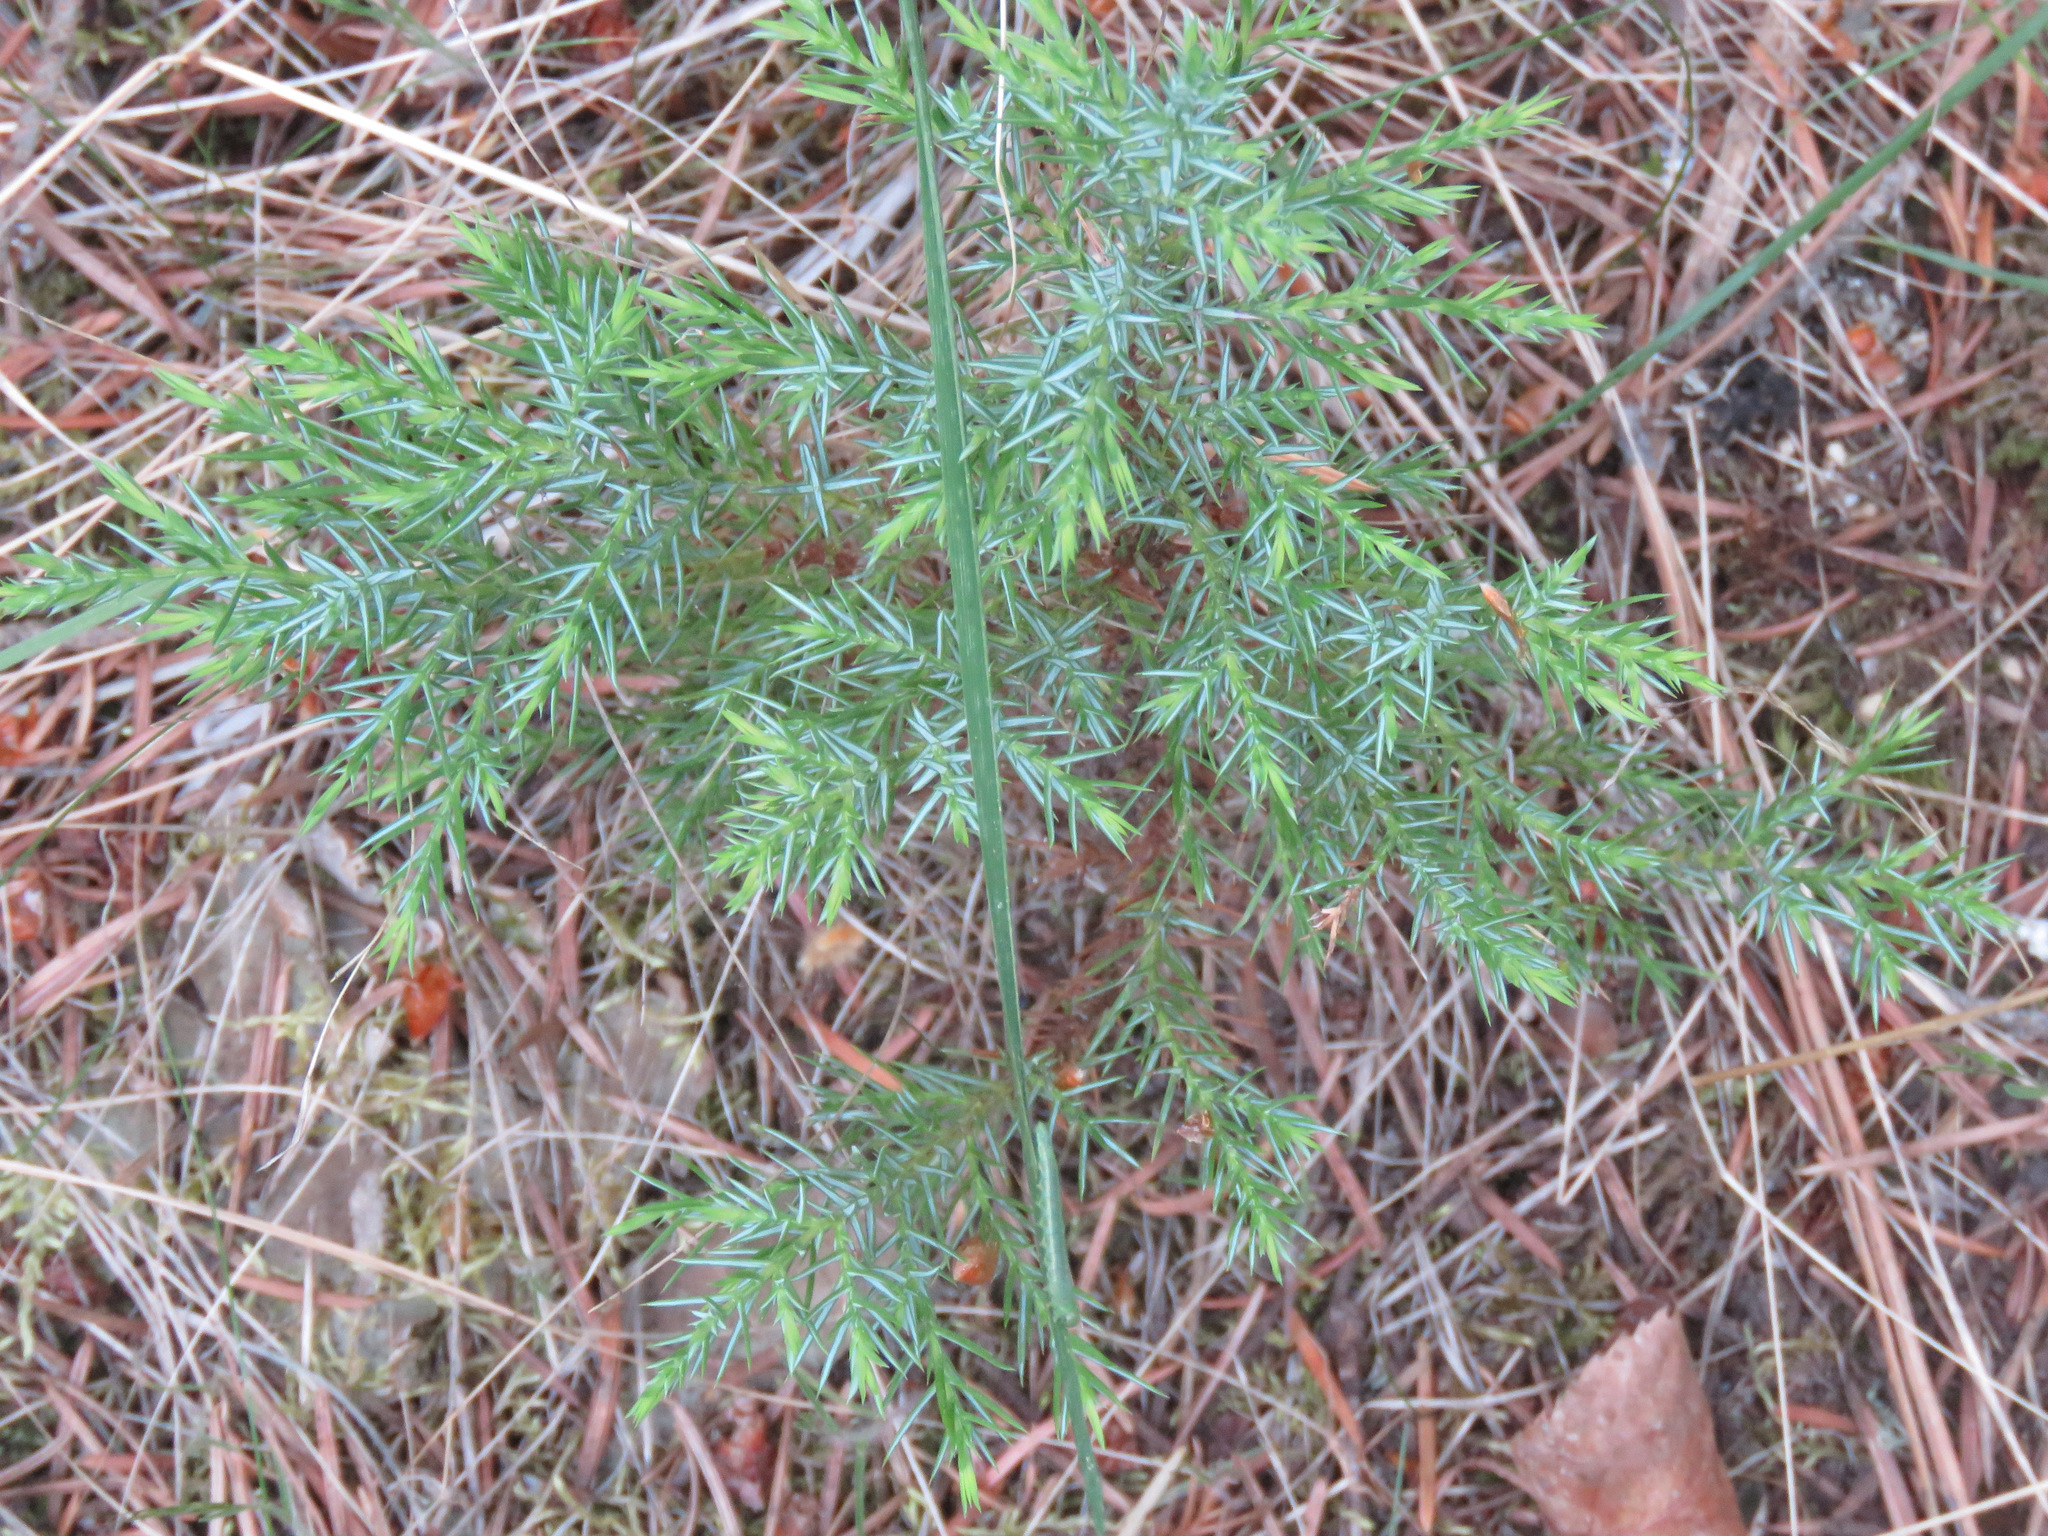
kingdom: Plantae
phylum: Tracheophyta
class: Pinopsida
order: Pinales
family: Cupressaceae
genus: Juniperus
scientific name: Juniperus communis
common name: Common juniper
